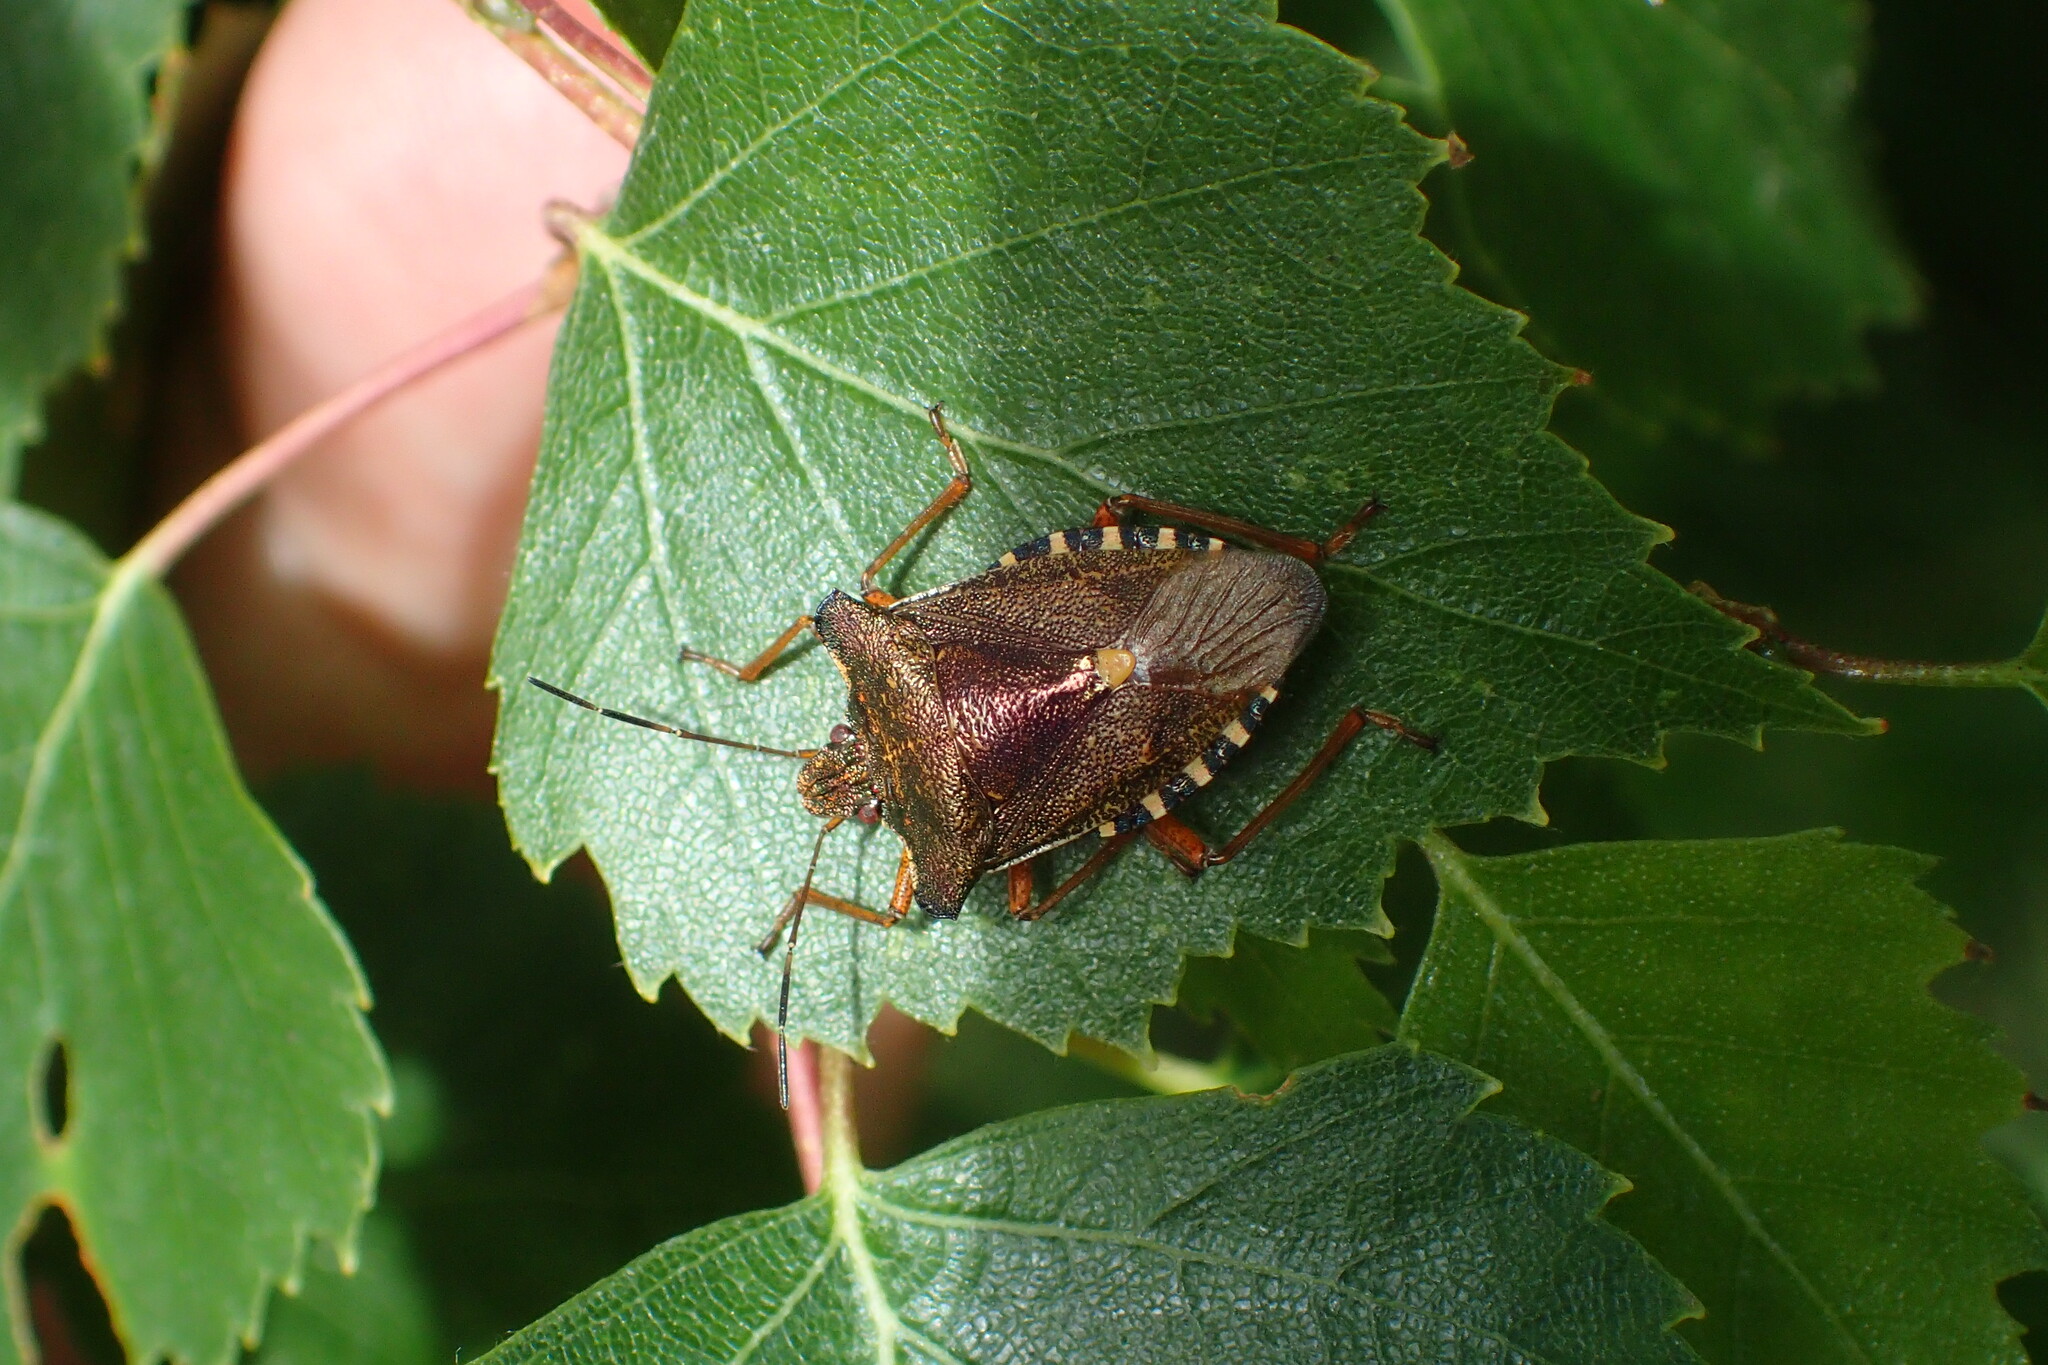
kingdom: Animalia
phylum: Arthropoda
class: Insecta
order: Hemiptera
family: Pentatomidae
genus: Pentatoma
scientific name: Pentatoma rufipes
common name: Forest bug
